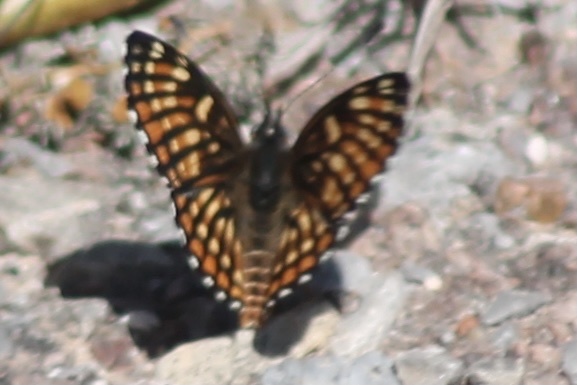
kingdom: Animalia
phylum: Arthropoda
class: Insecta
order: Lepidoptera
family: Nymphalidae
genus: Thessalia
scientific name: Thessalia leanira
